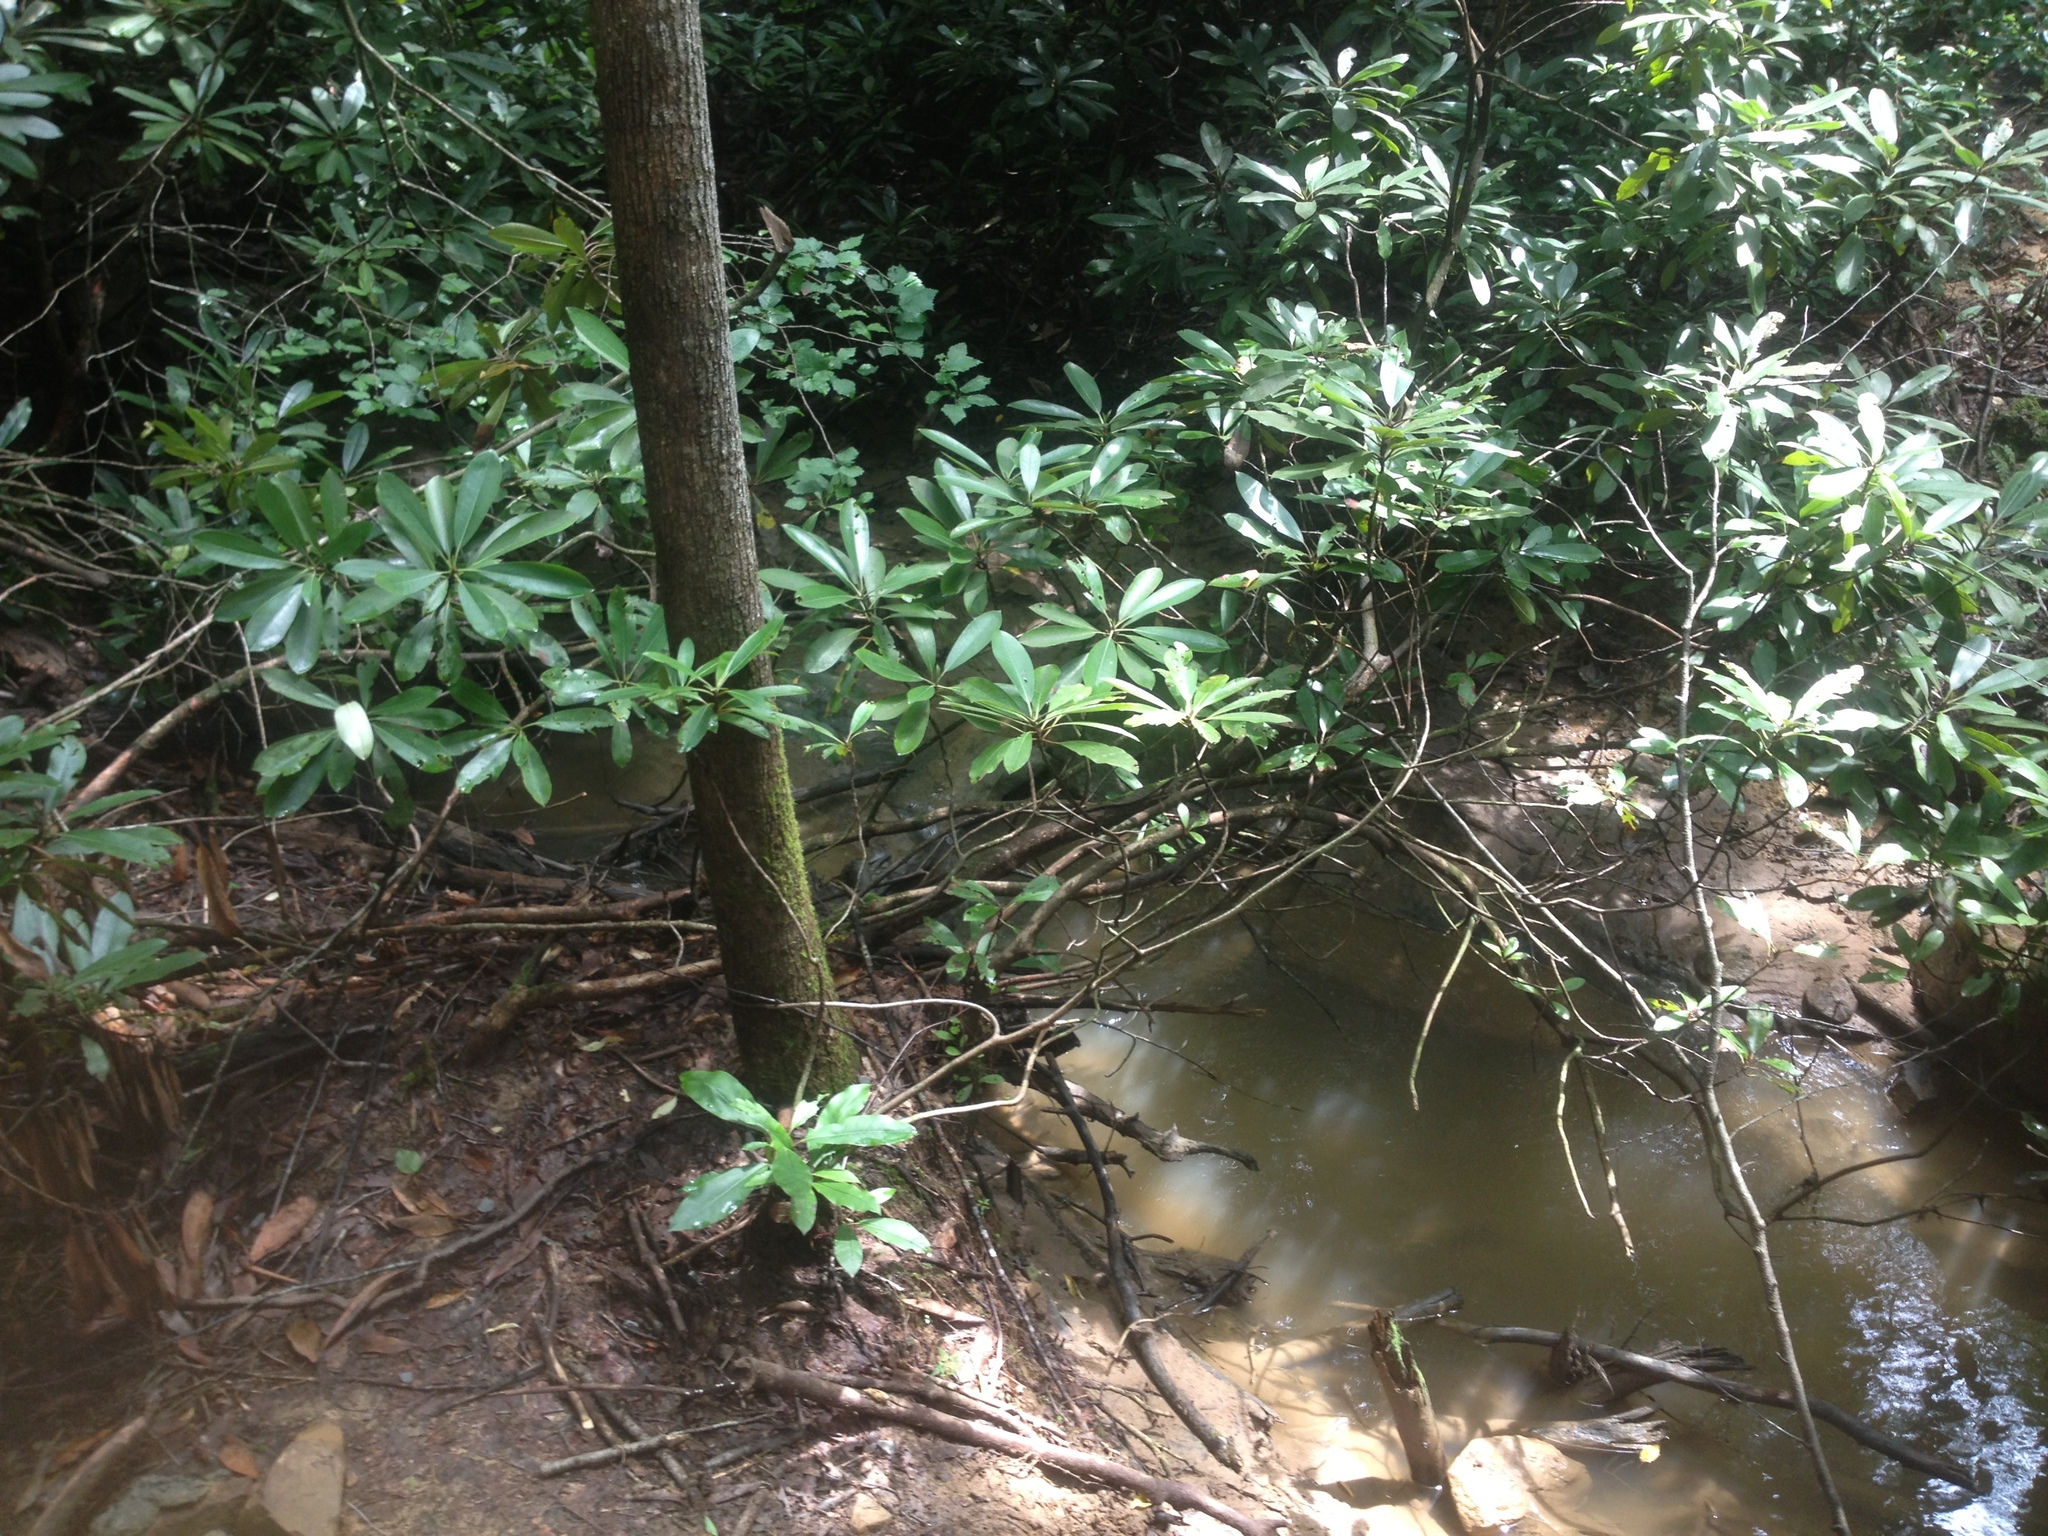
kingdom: Plantae
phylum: Tracheophyta
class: Magnoliopsida
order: Ericales
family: Ericaceae
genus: Rhododendron
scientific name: Rhododendron maximum
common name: Great rhododendron
